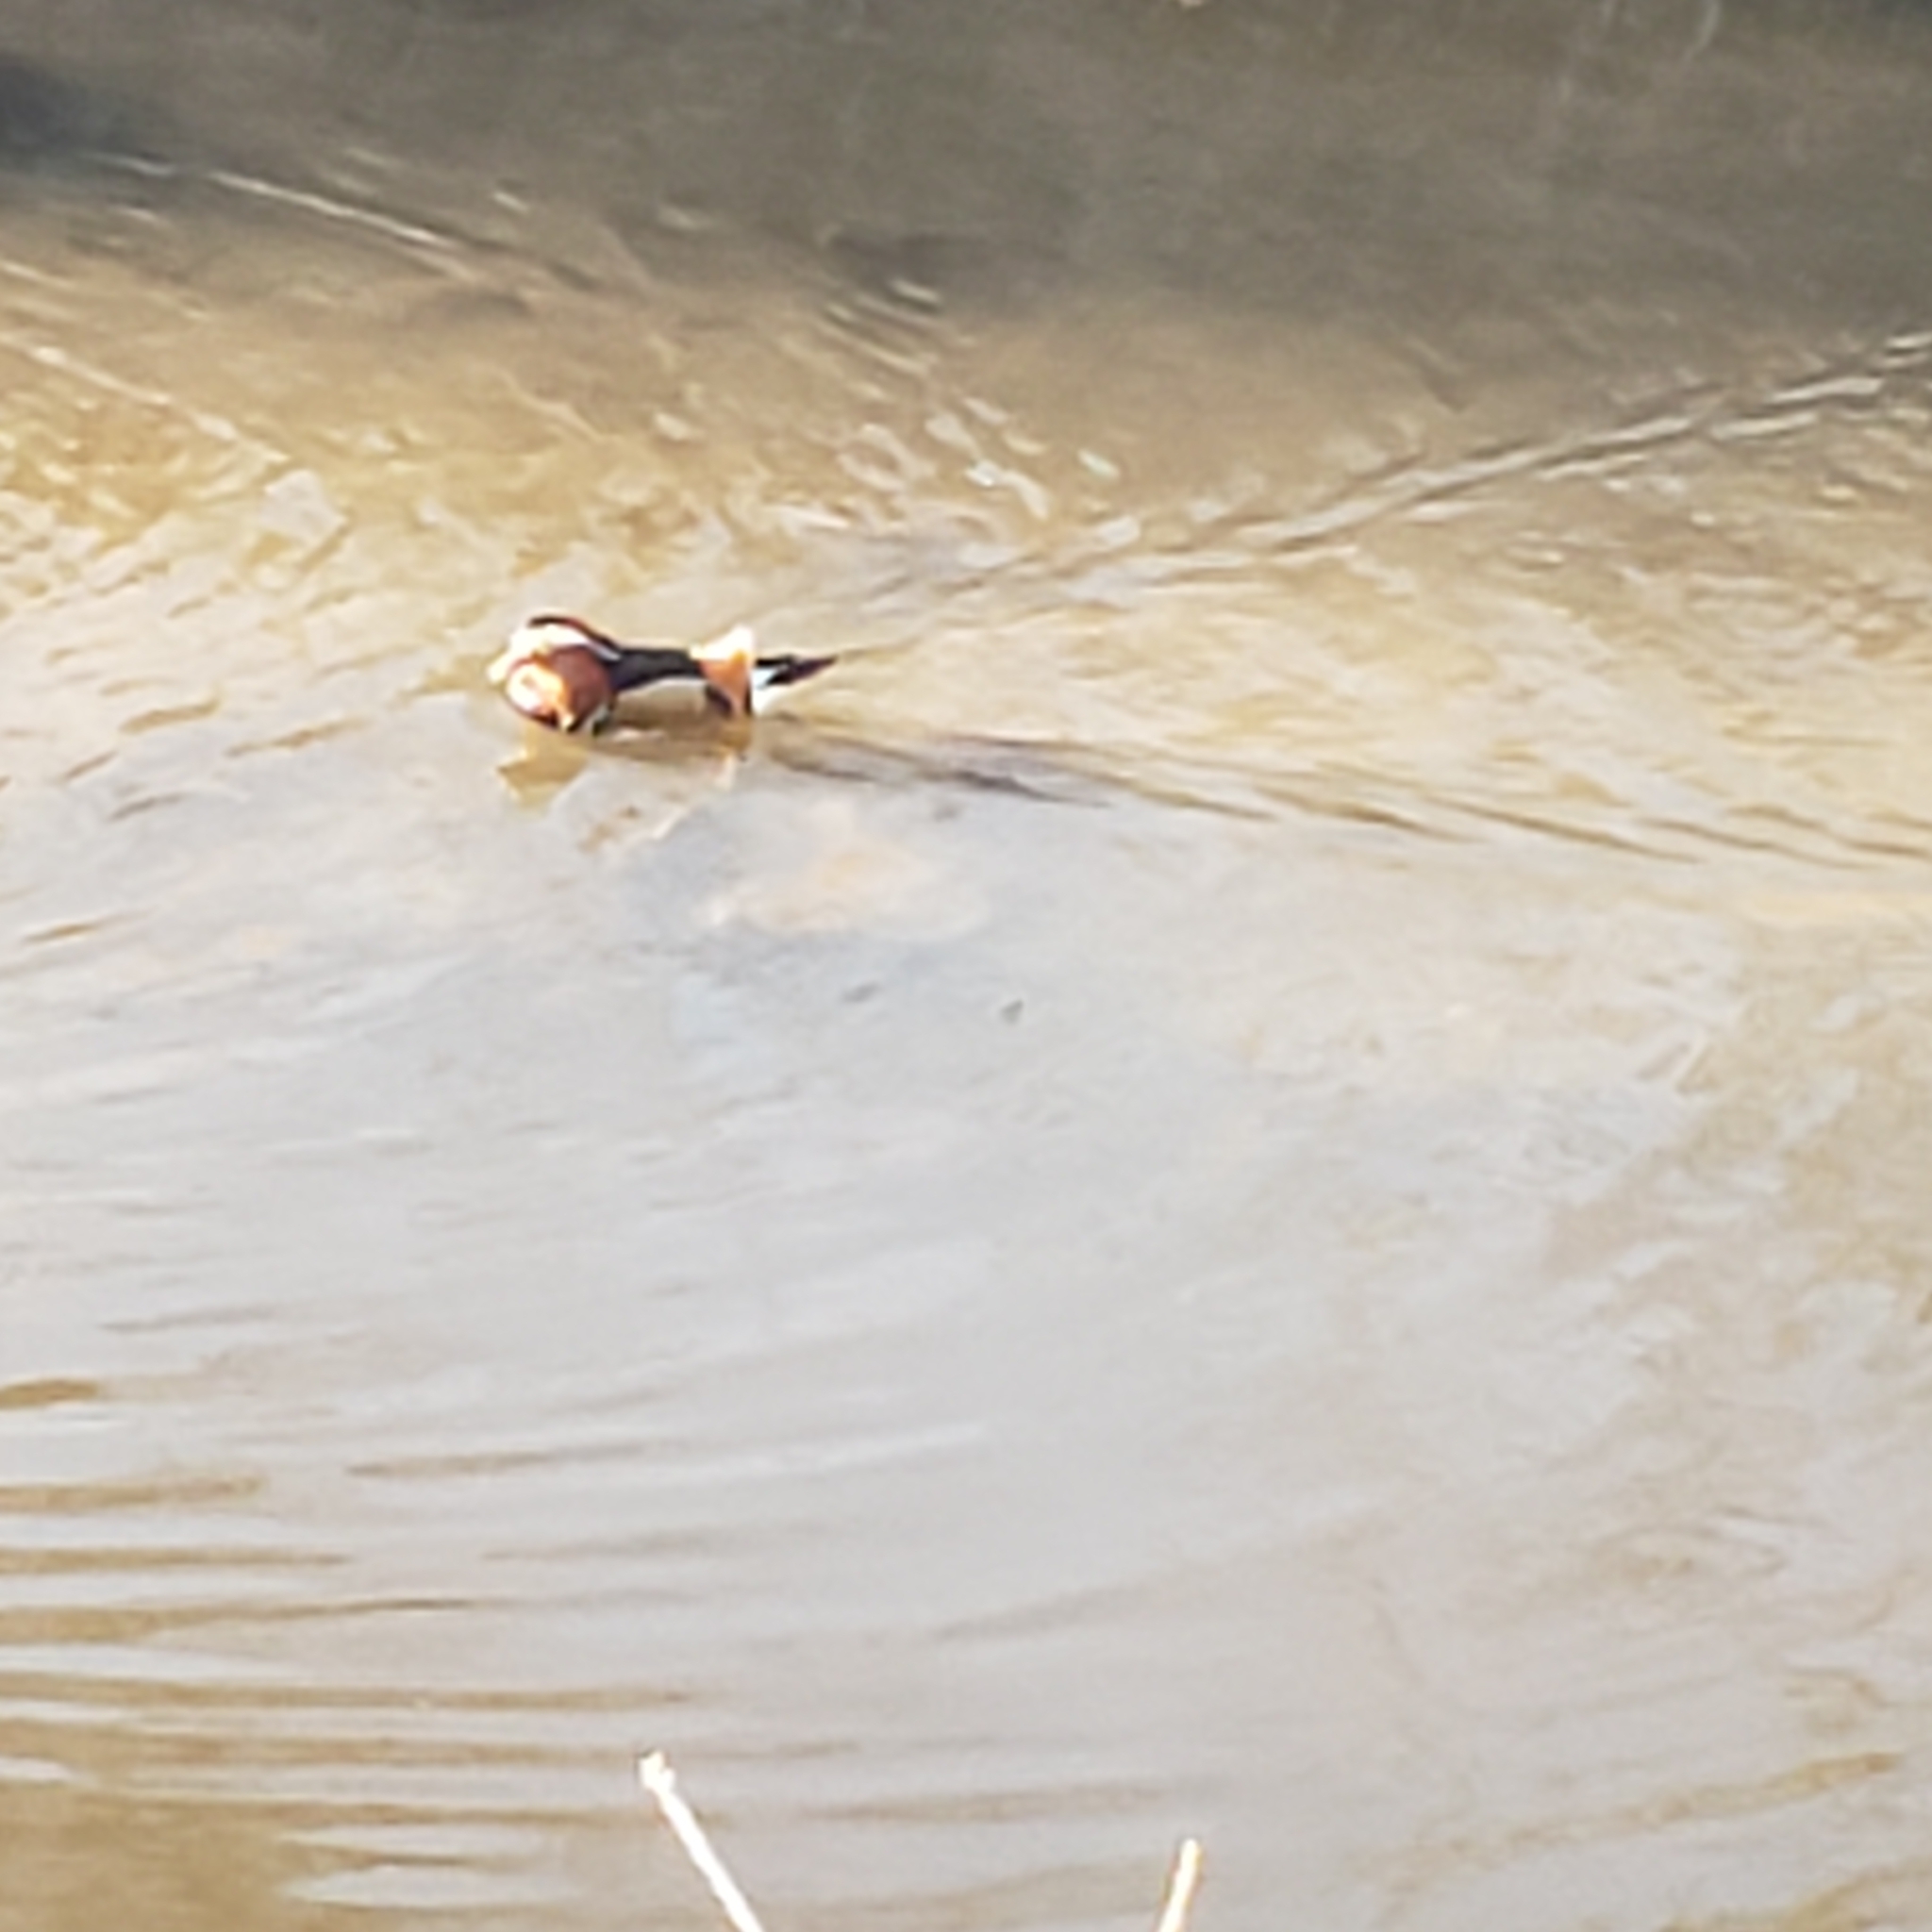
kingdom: Animalia
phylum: Chordata
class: Aves
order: Anseriformes
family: Anatidae
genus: Aix
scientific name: Aix galericulata
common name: Mandarin duck
